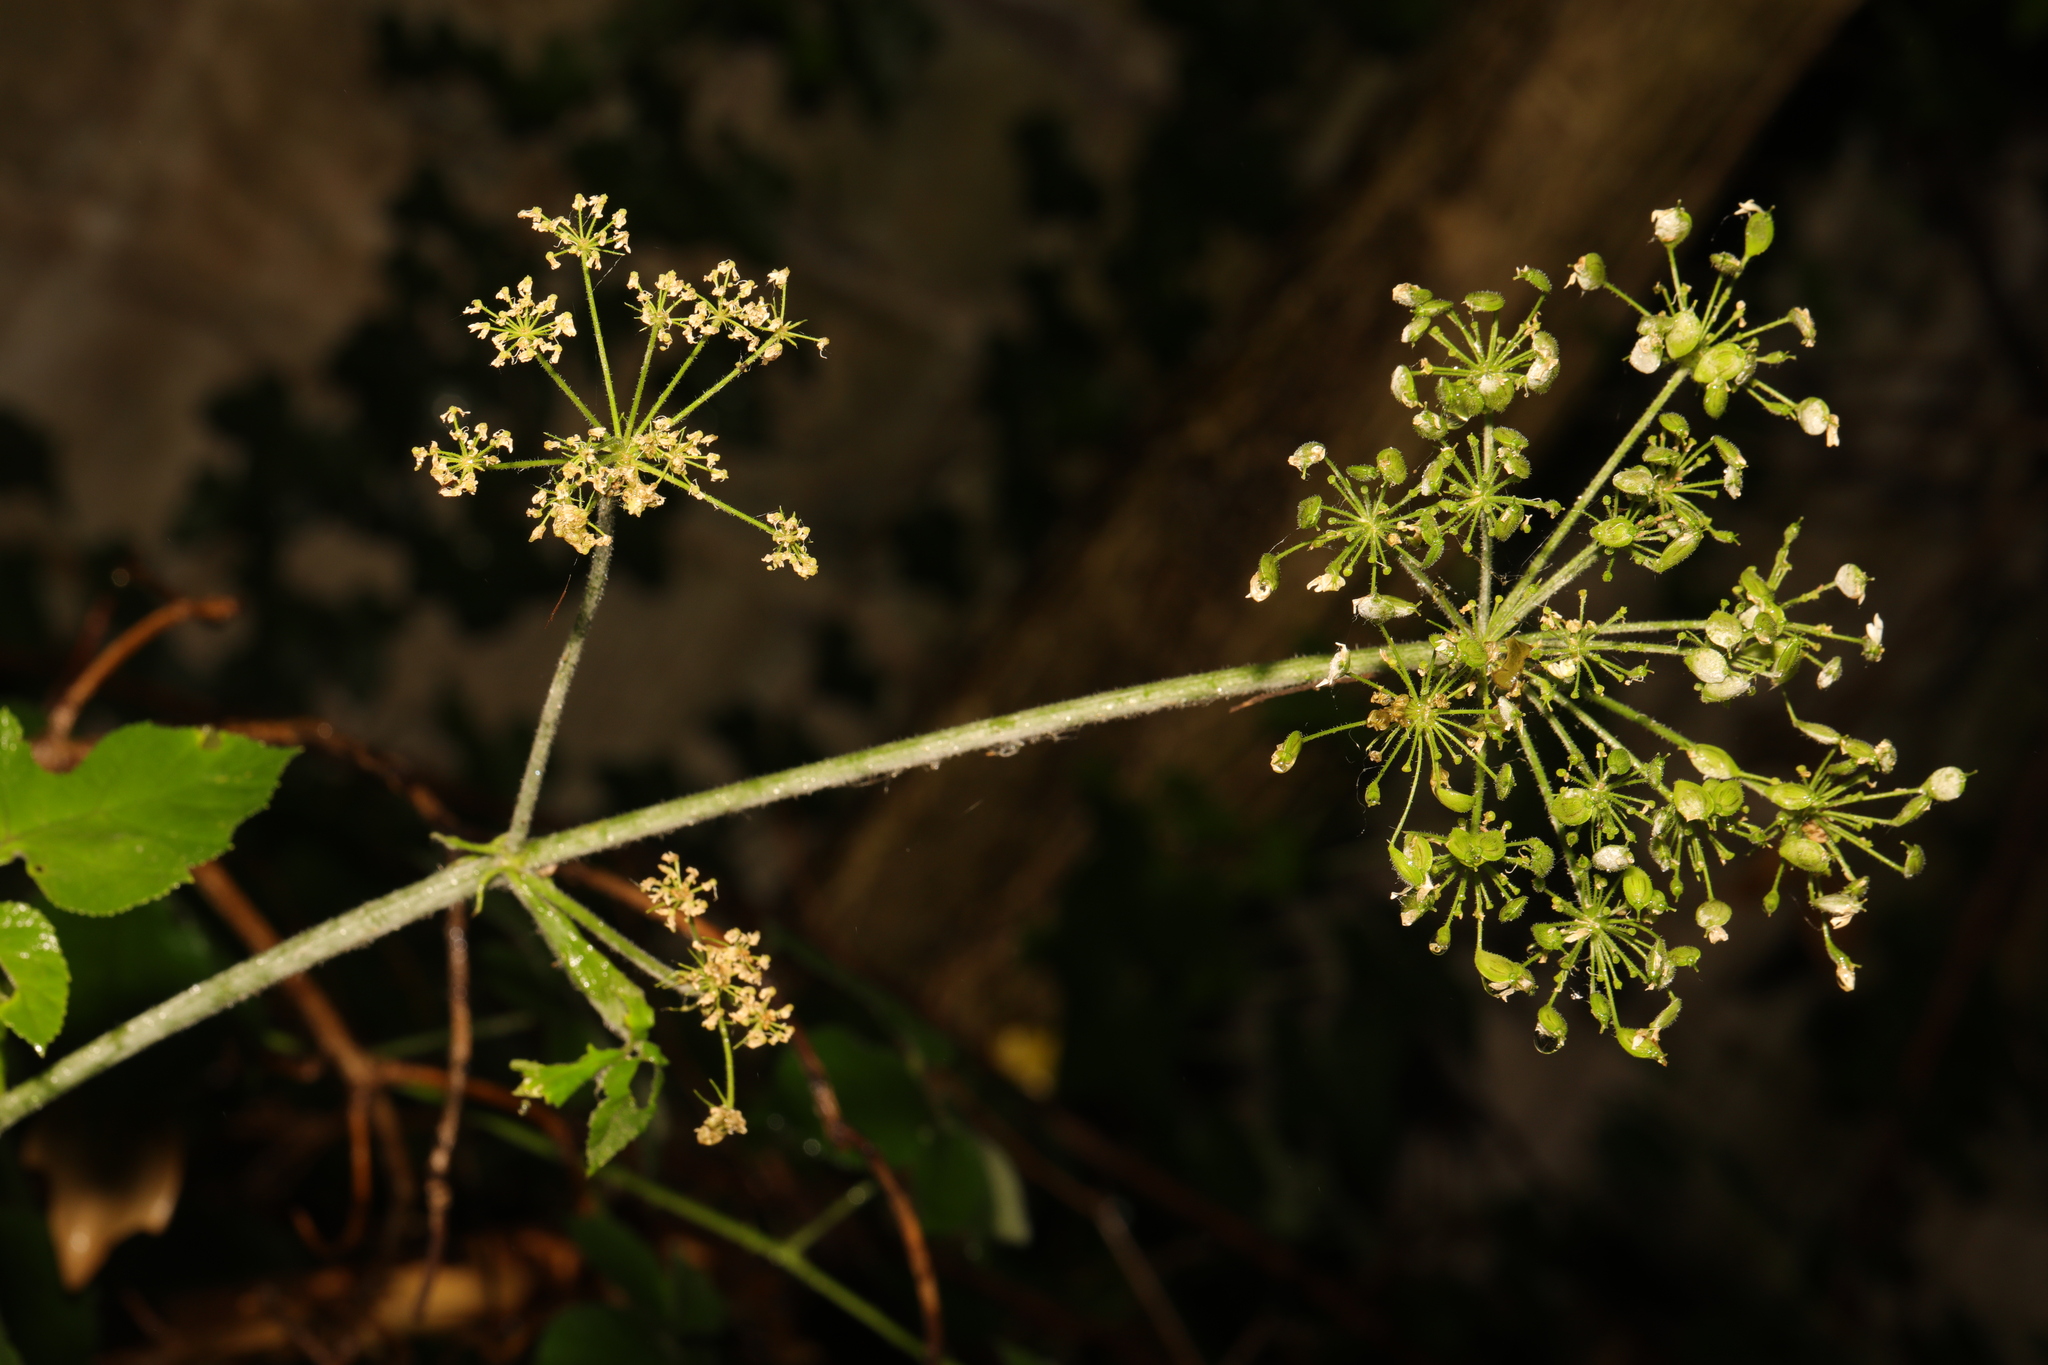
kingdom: Plantae
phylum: Tracheophyta
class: Magnoliopsida
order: Apiales
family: Apiaceae
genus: Heracleum
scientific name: Heracleum sphondylium
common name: Hogweed
